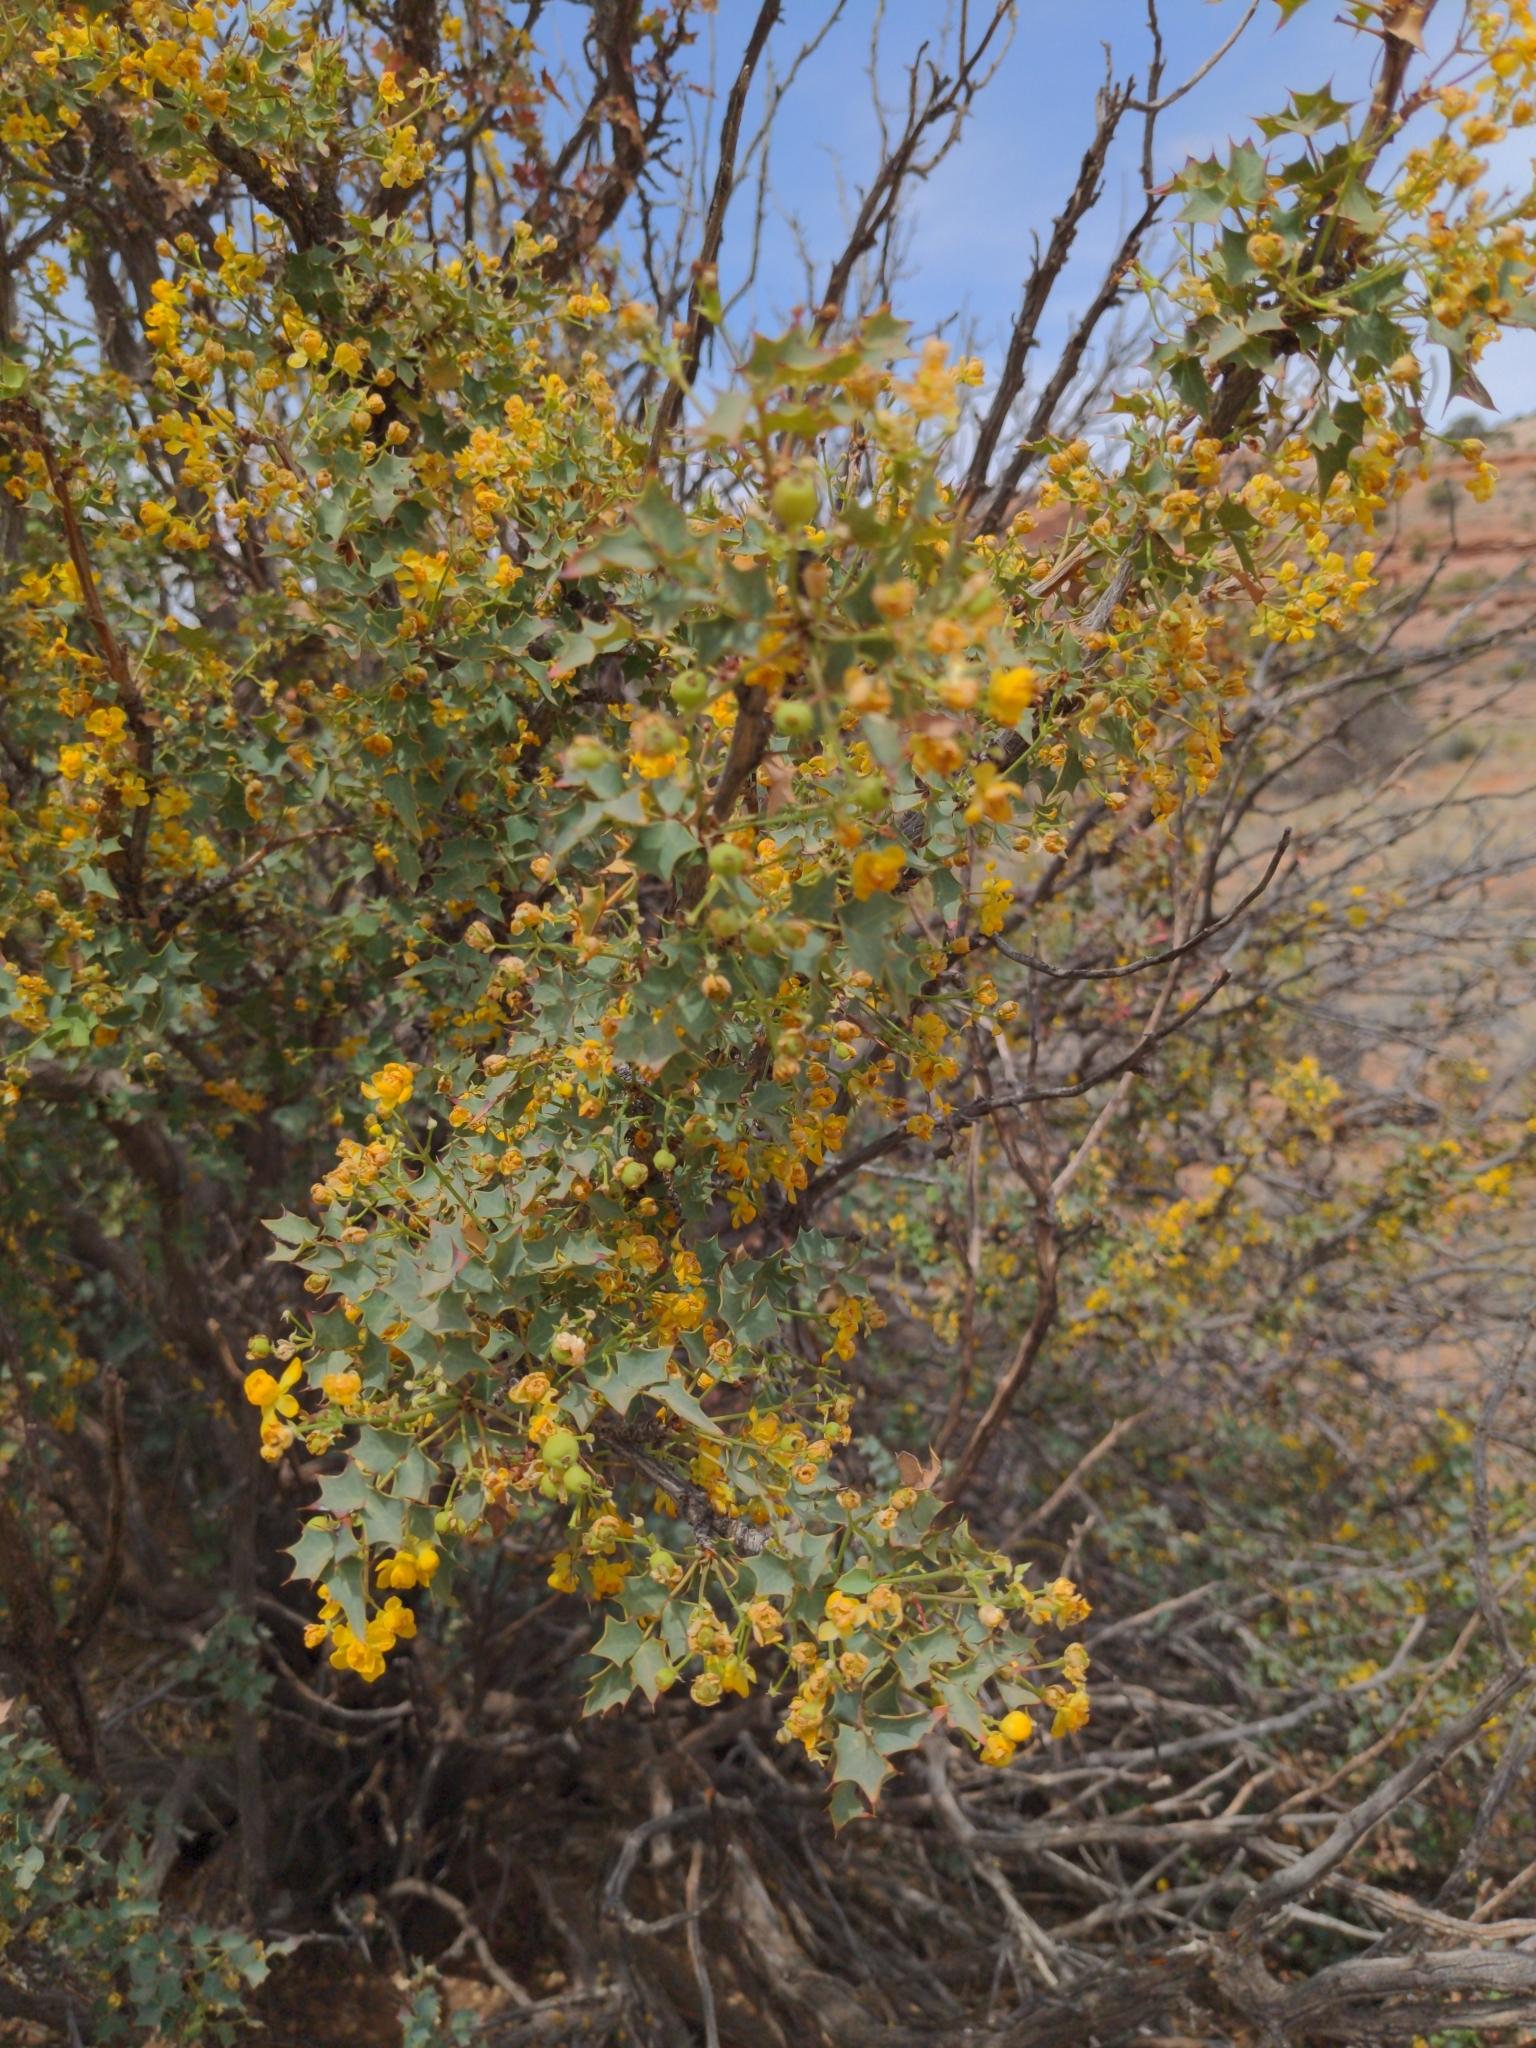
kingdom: Plantae
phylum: Tracheophyta
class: Magnoliopsida
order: Ranunculales
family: Berberidaceae
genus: Alloberberis
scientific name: Alloberberis fremontii
